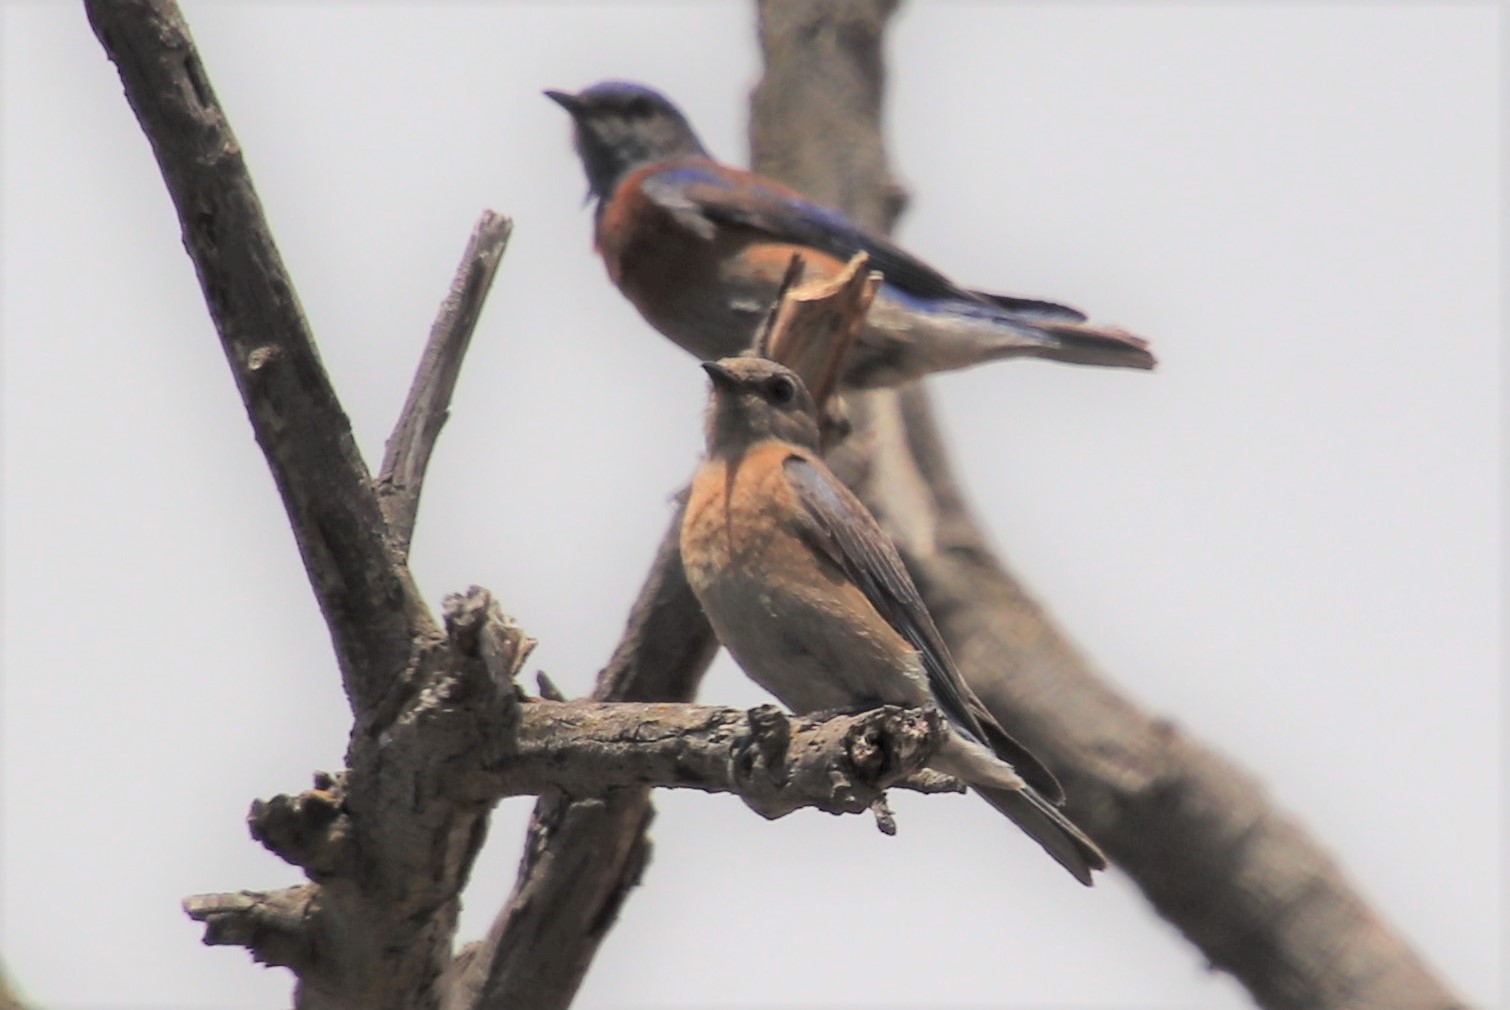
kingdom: Animalia
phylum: Chordata
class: Aves
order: Passeriformes
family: Turdidae
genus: Sialia
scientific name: Sialia mexicana
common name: Western bluebird
